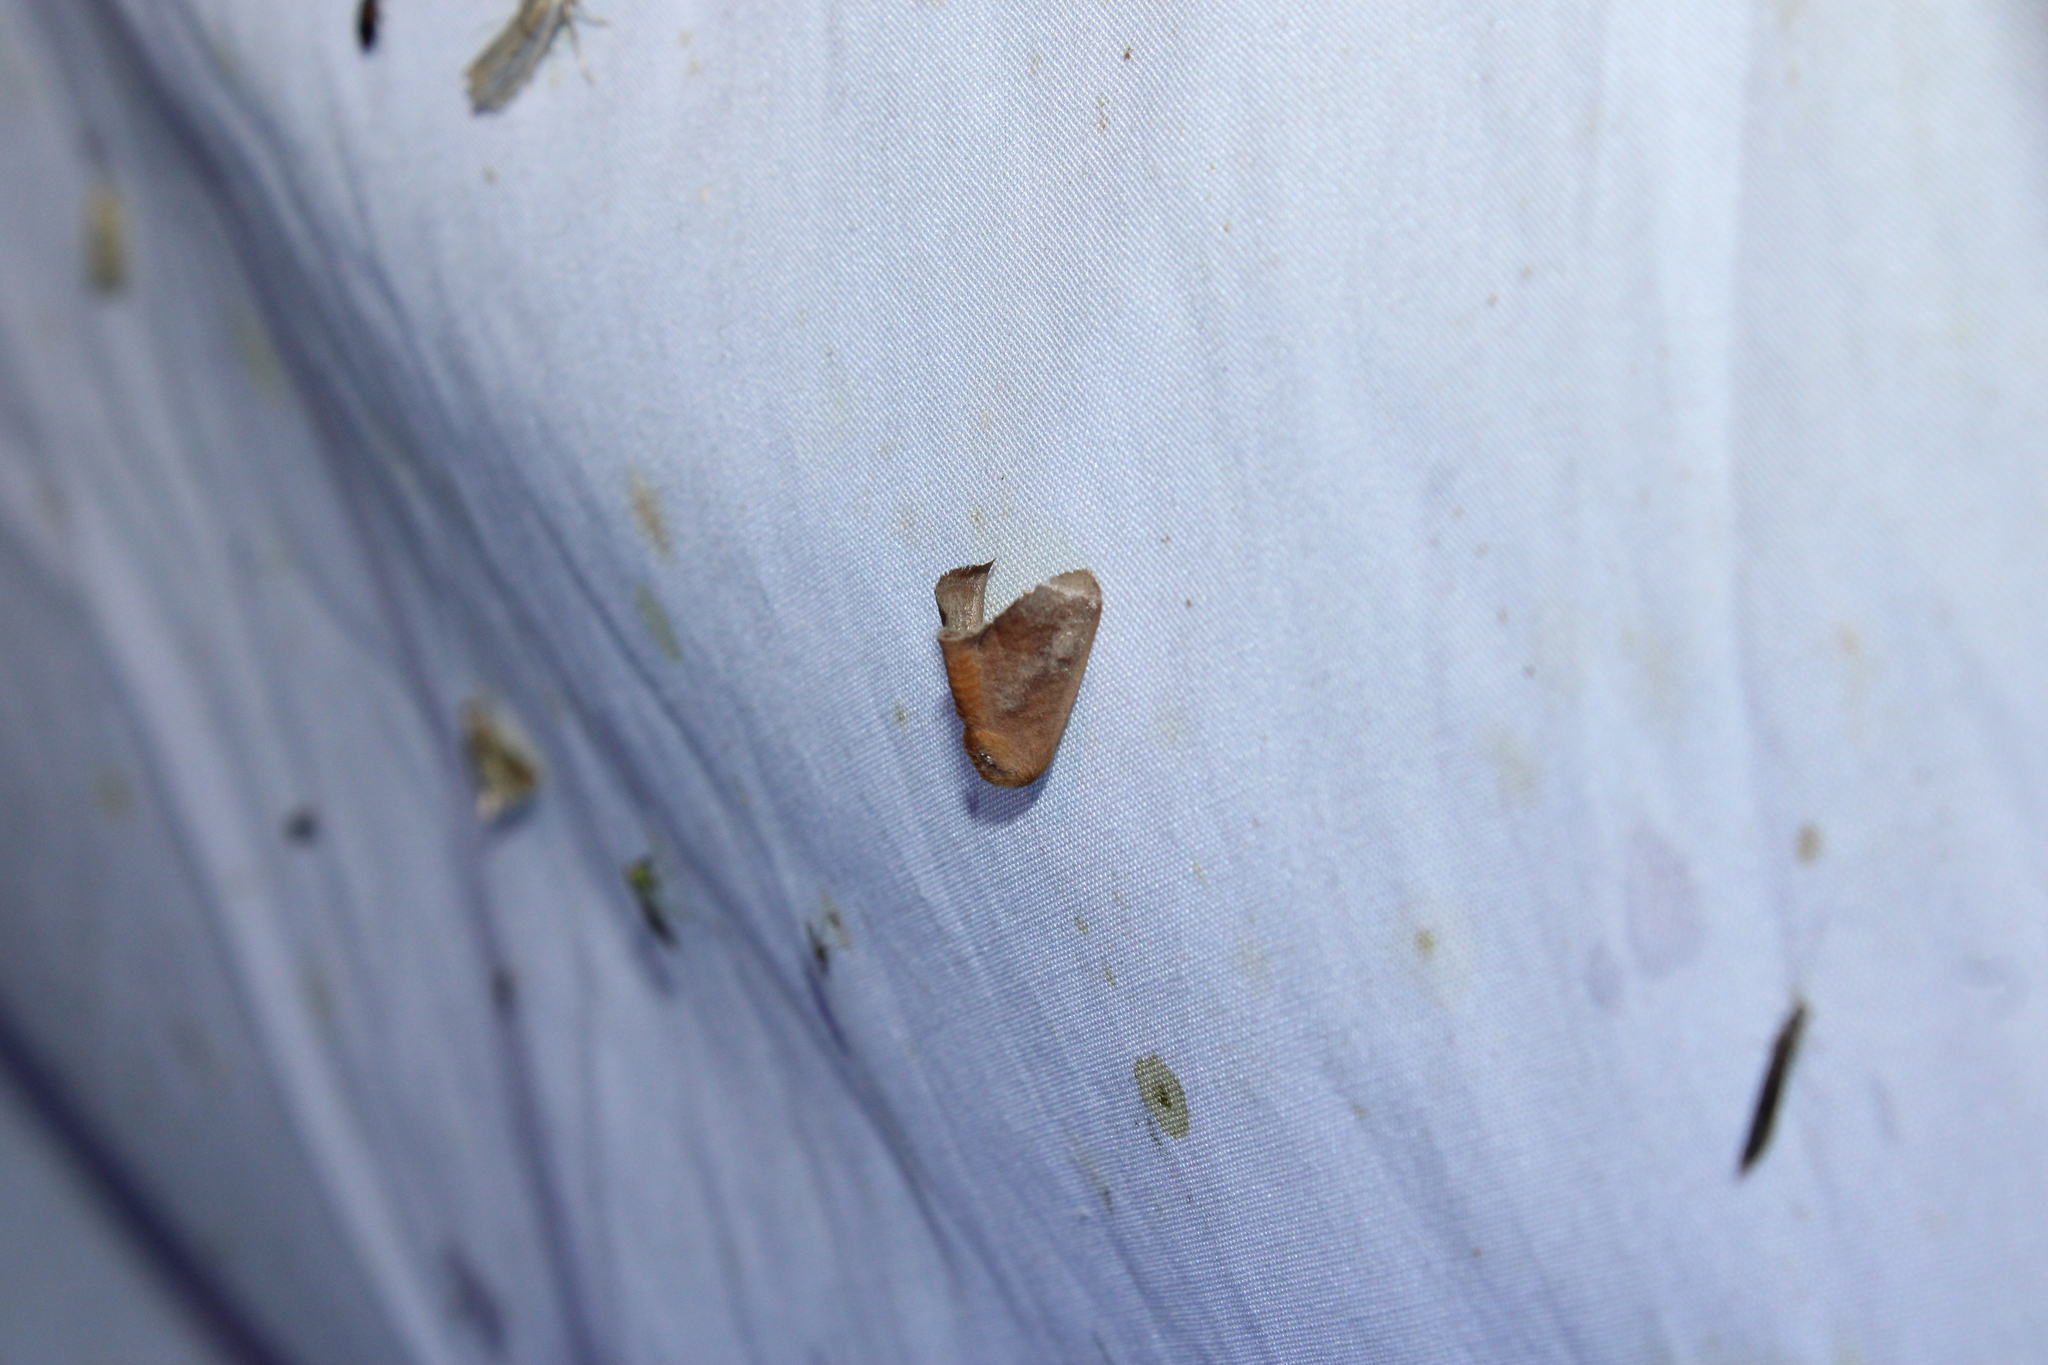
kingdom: Animalia
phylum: Arthropoda
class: Insecta
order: Lepidoptera
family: Limacodidae
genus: Isa
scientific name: Isa textula
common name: Crowned slug moth
